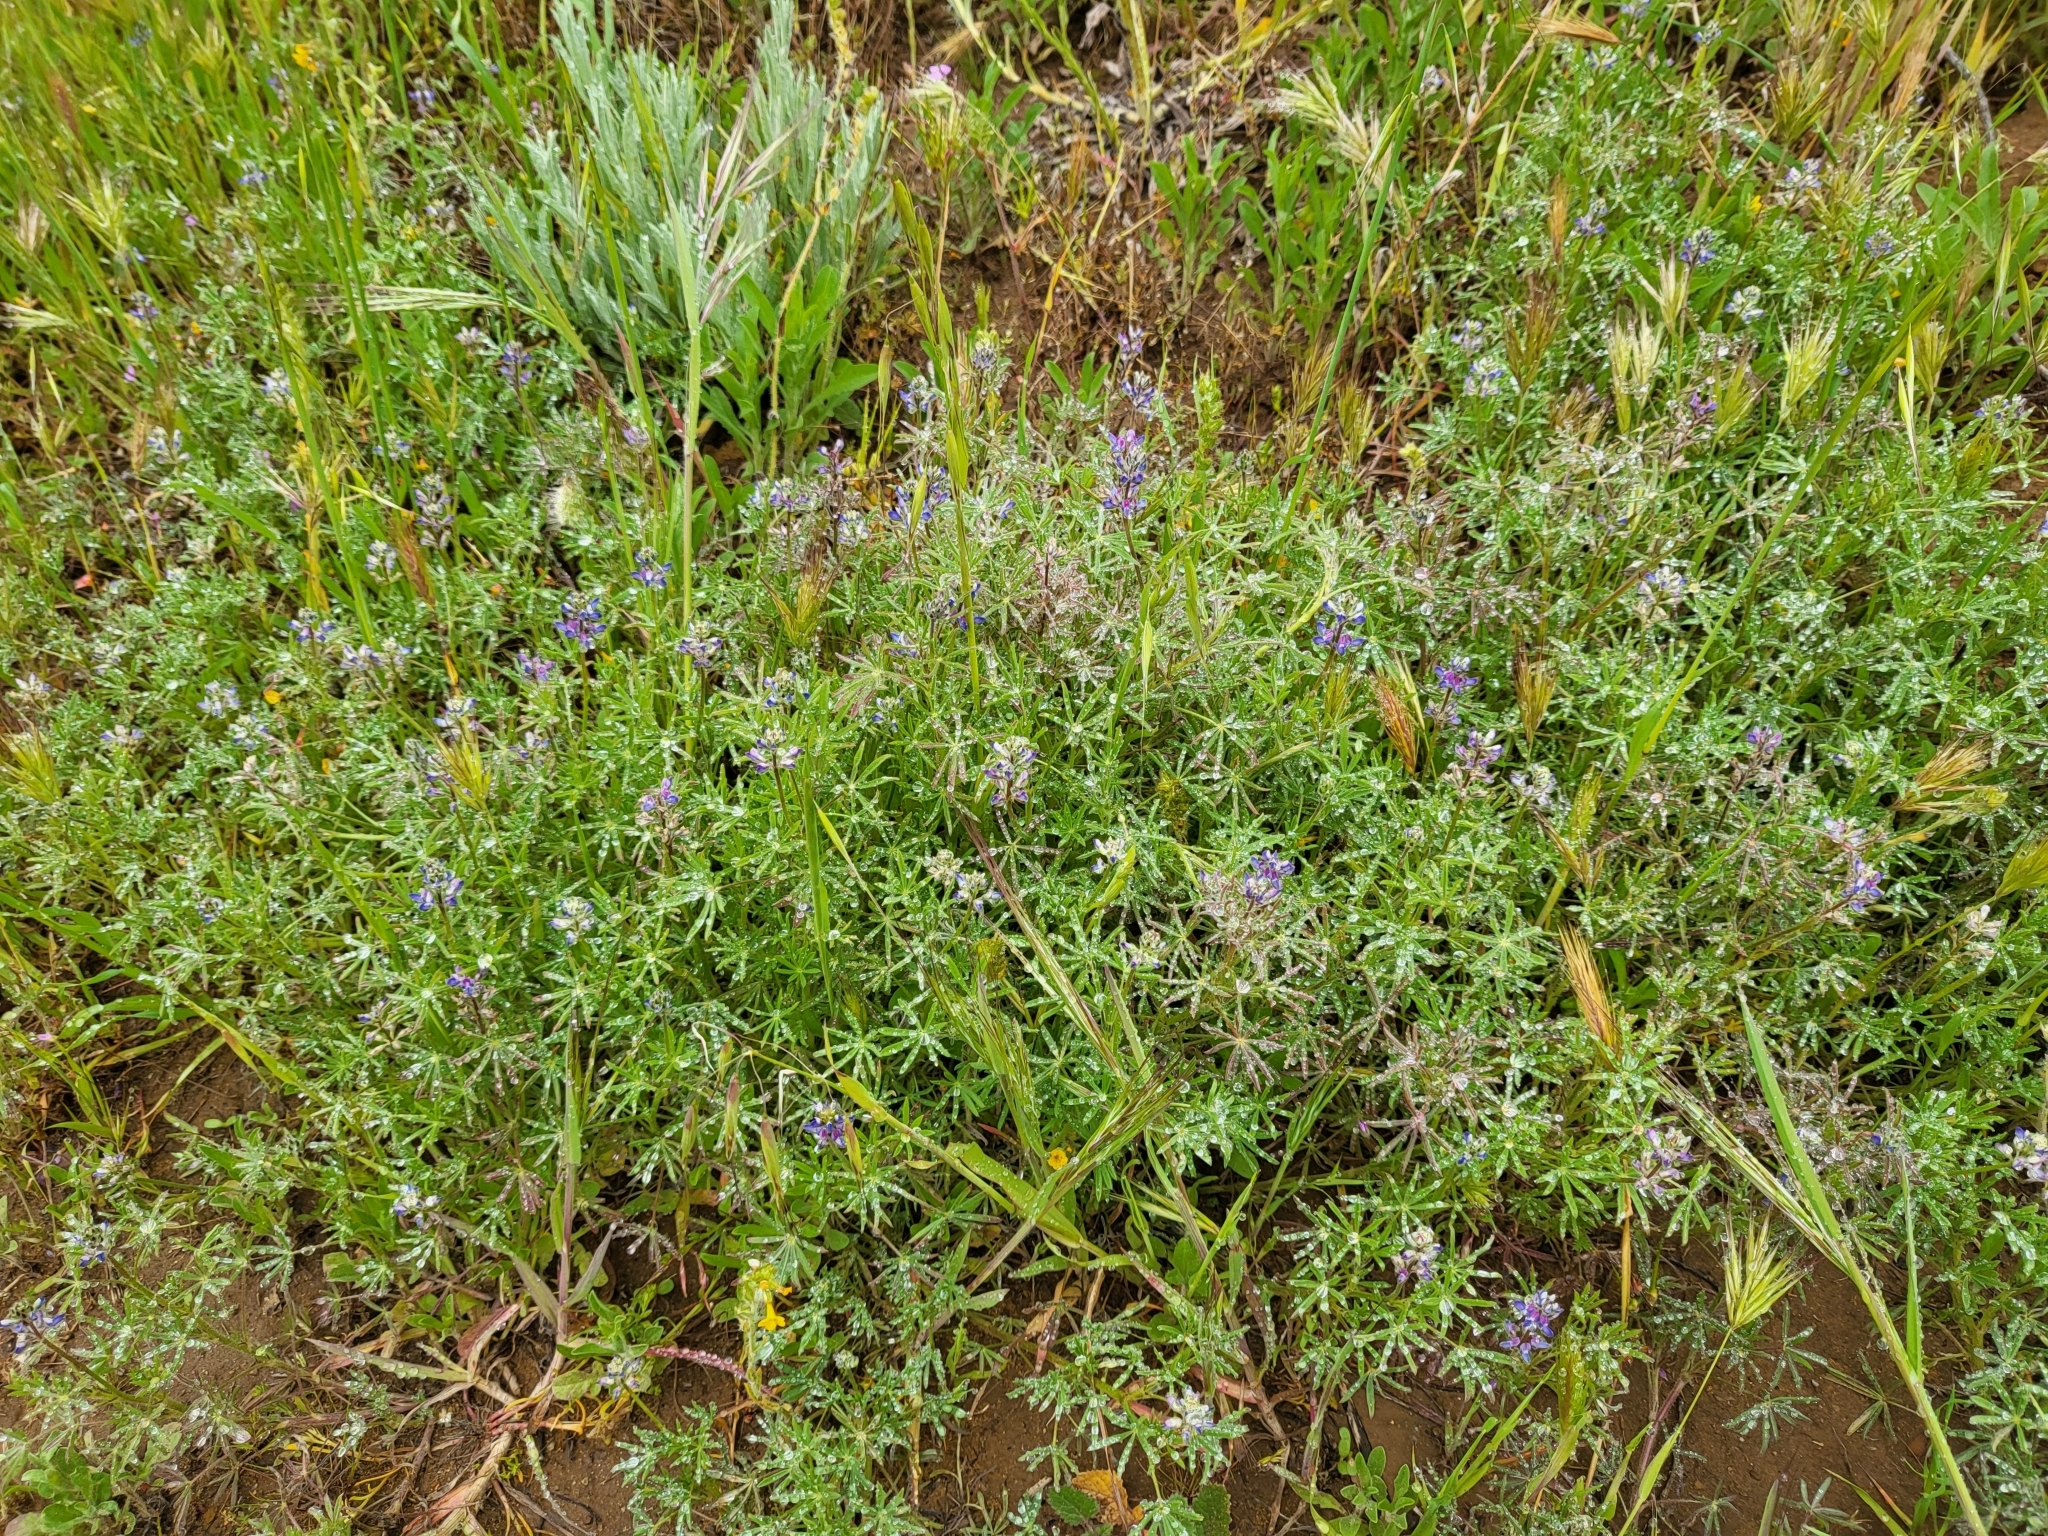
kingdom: Plantae
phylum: Tracheophyta
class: Magnoliopsida
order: Fabales
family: Fabaceae
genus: Lupinus
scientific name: Lupinus bicolor
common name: Miniature lupine
